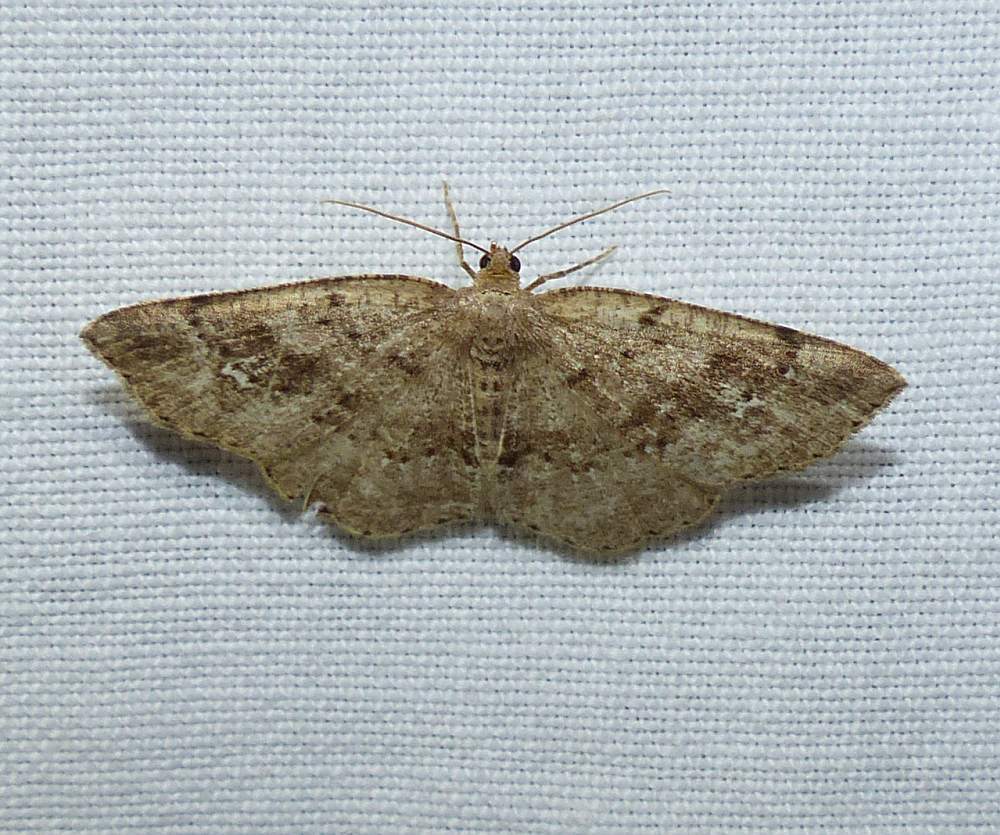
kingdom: Animalia
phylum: Arthropoda
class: Insecta
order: Lepidoptera
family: Geometridae
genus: Homochlodes
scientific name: Homochlodes fritillaria
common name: Pale homochlodes
